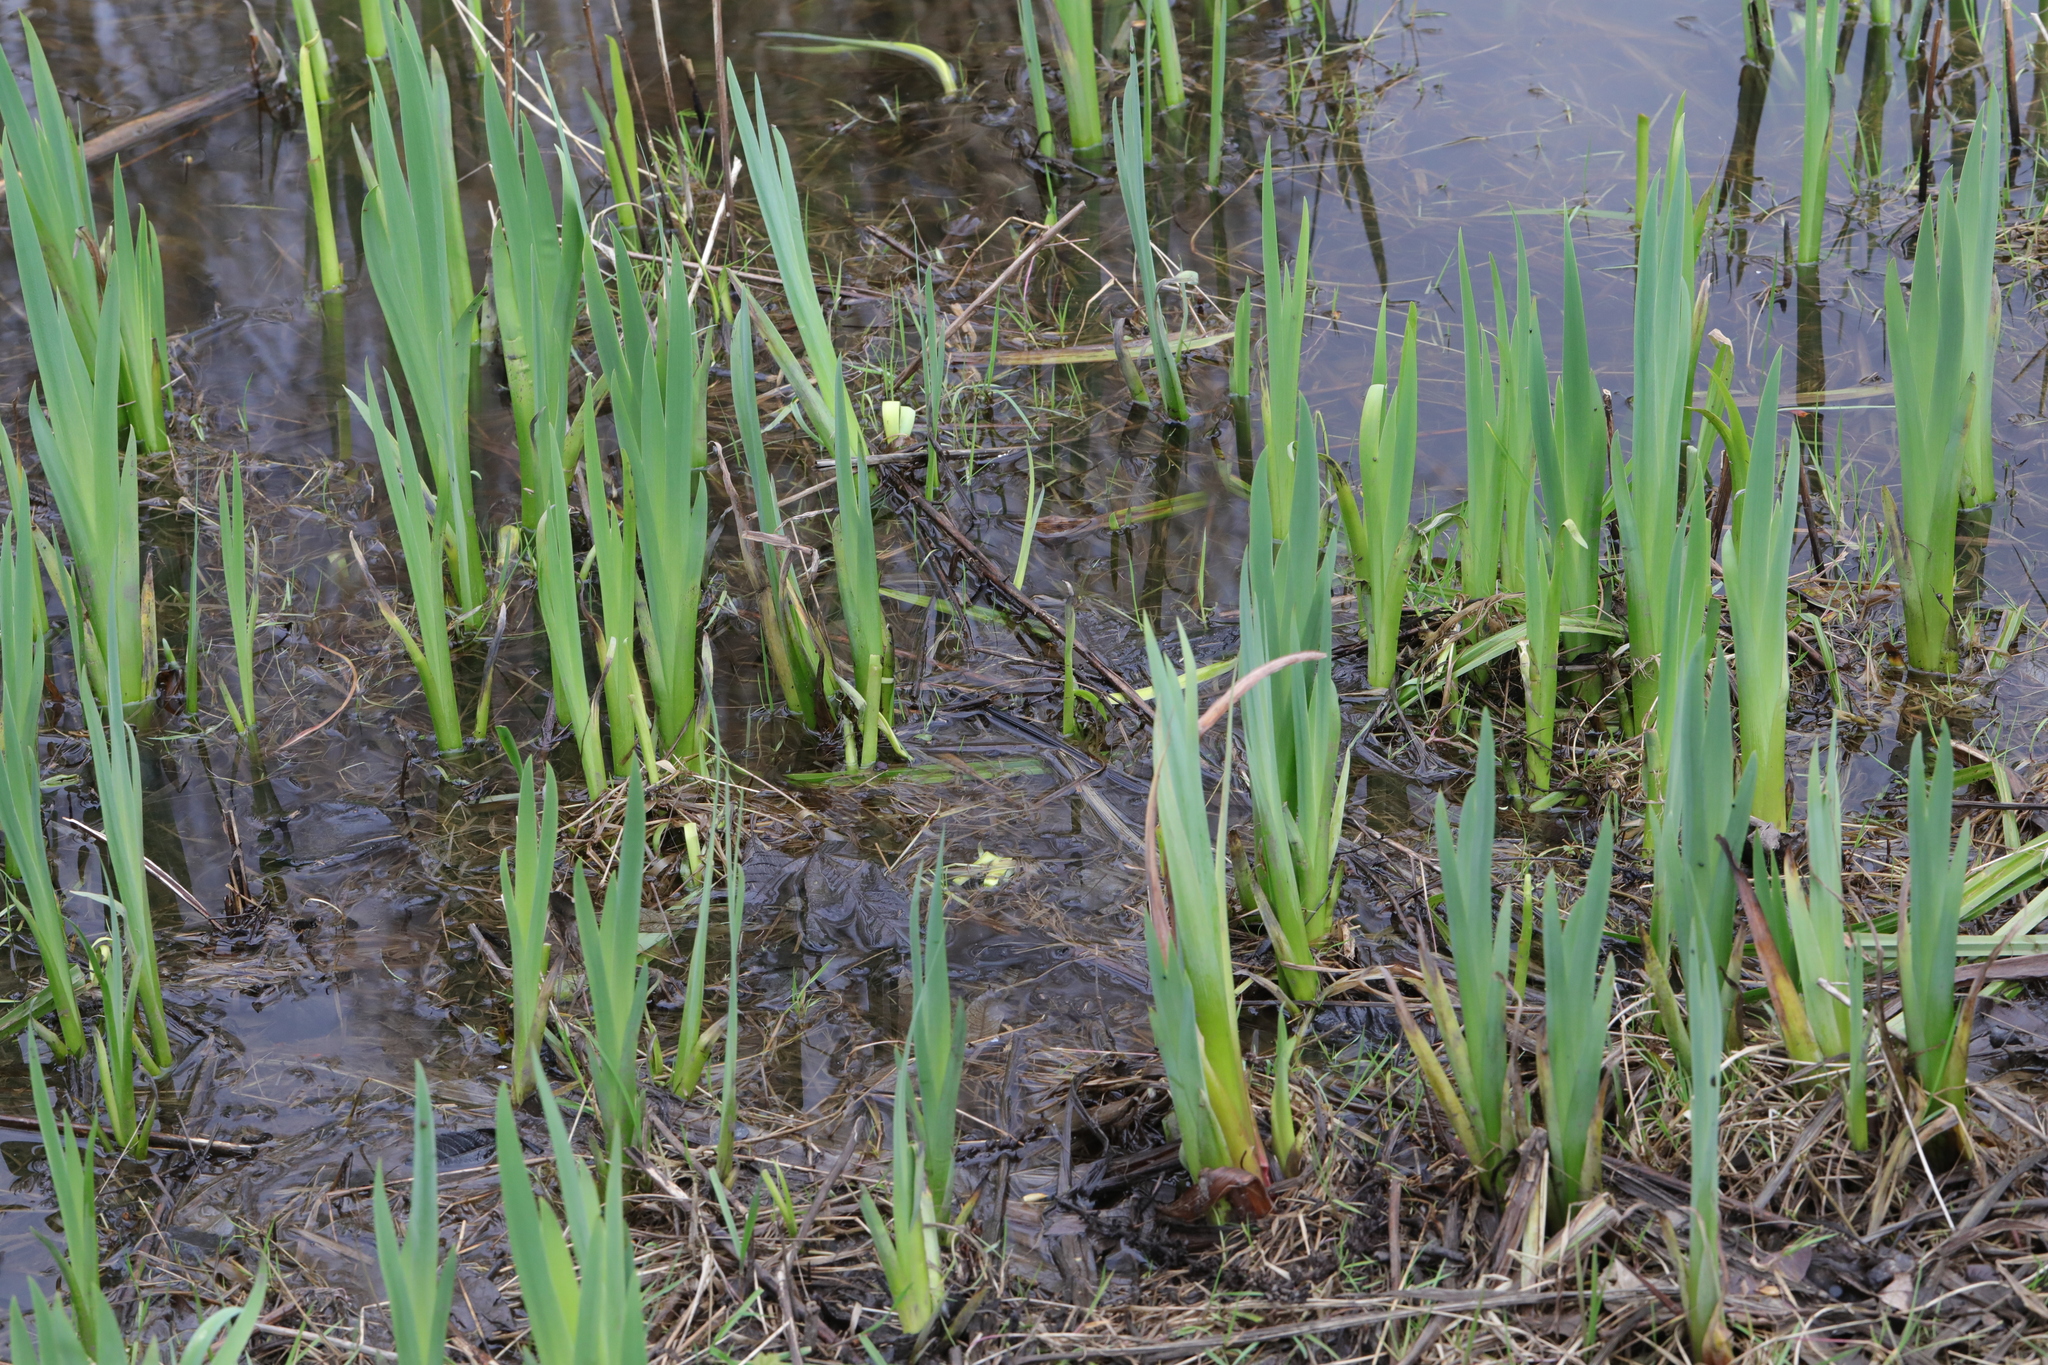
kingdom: Plantae
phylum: Tracheophyta
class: Liliopsida
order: Asparagales
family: Iridaceae
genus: Iris
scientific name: Iris pseudacorus
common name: Yellow flag
